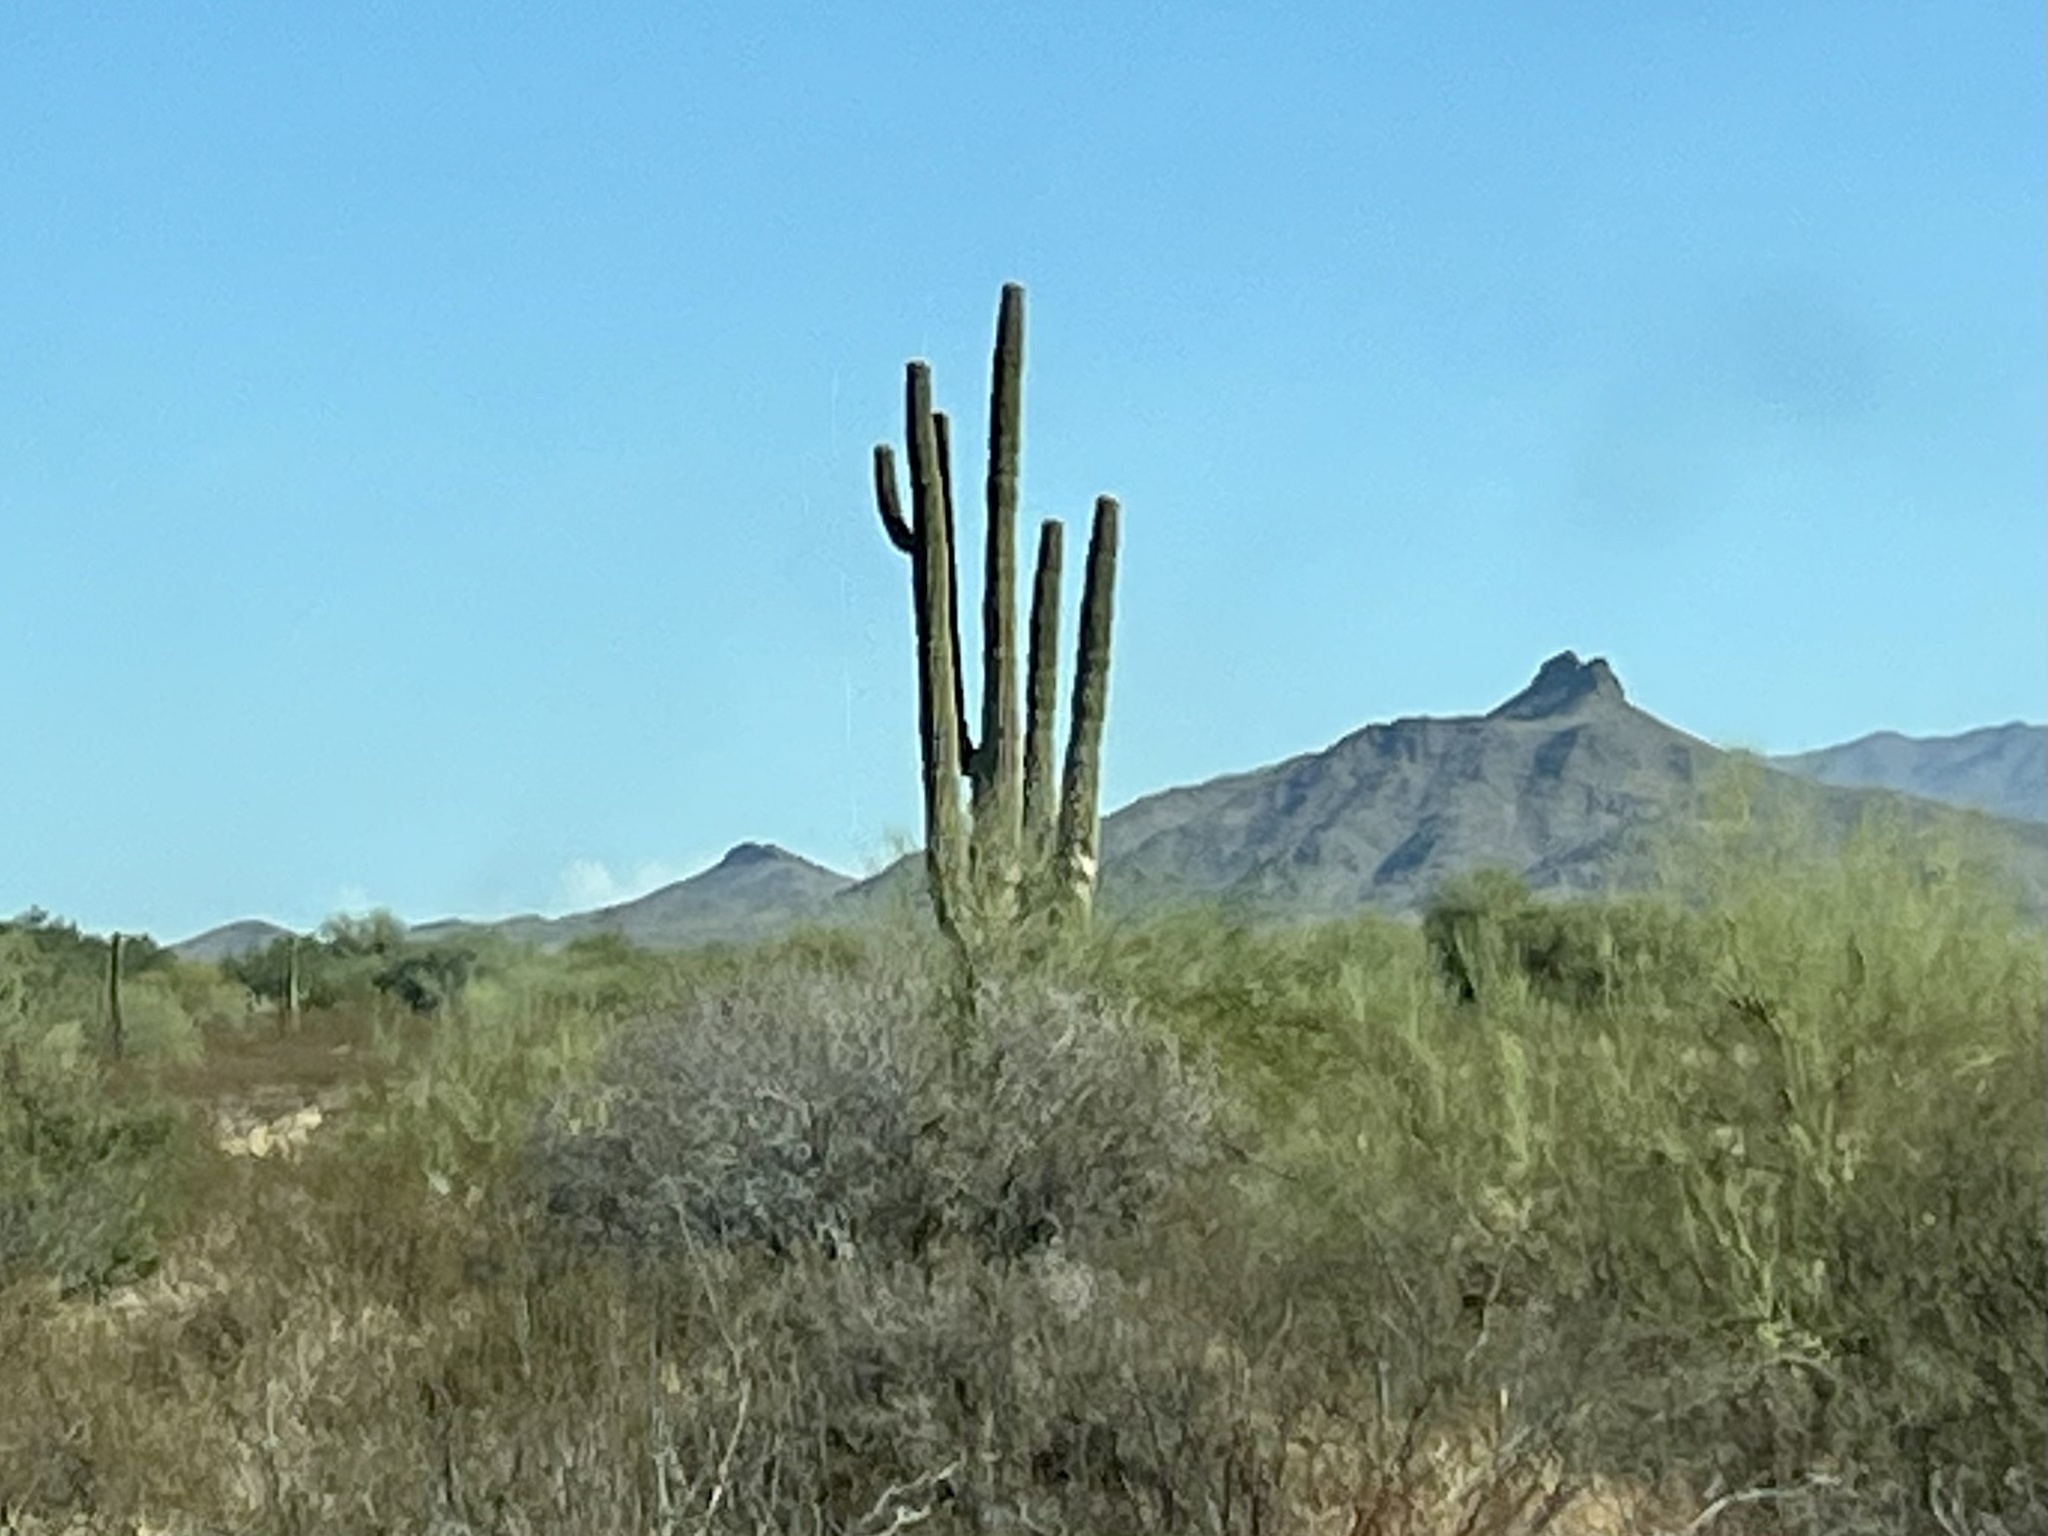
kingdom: Plantae
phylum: Tracheophyta
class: Magnoliopsida
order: Caryophyllales
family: Cactaceae
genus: Carnegiea
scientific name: Carnegiea gigantea
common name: Saguaro
